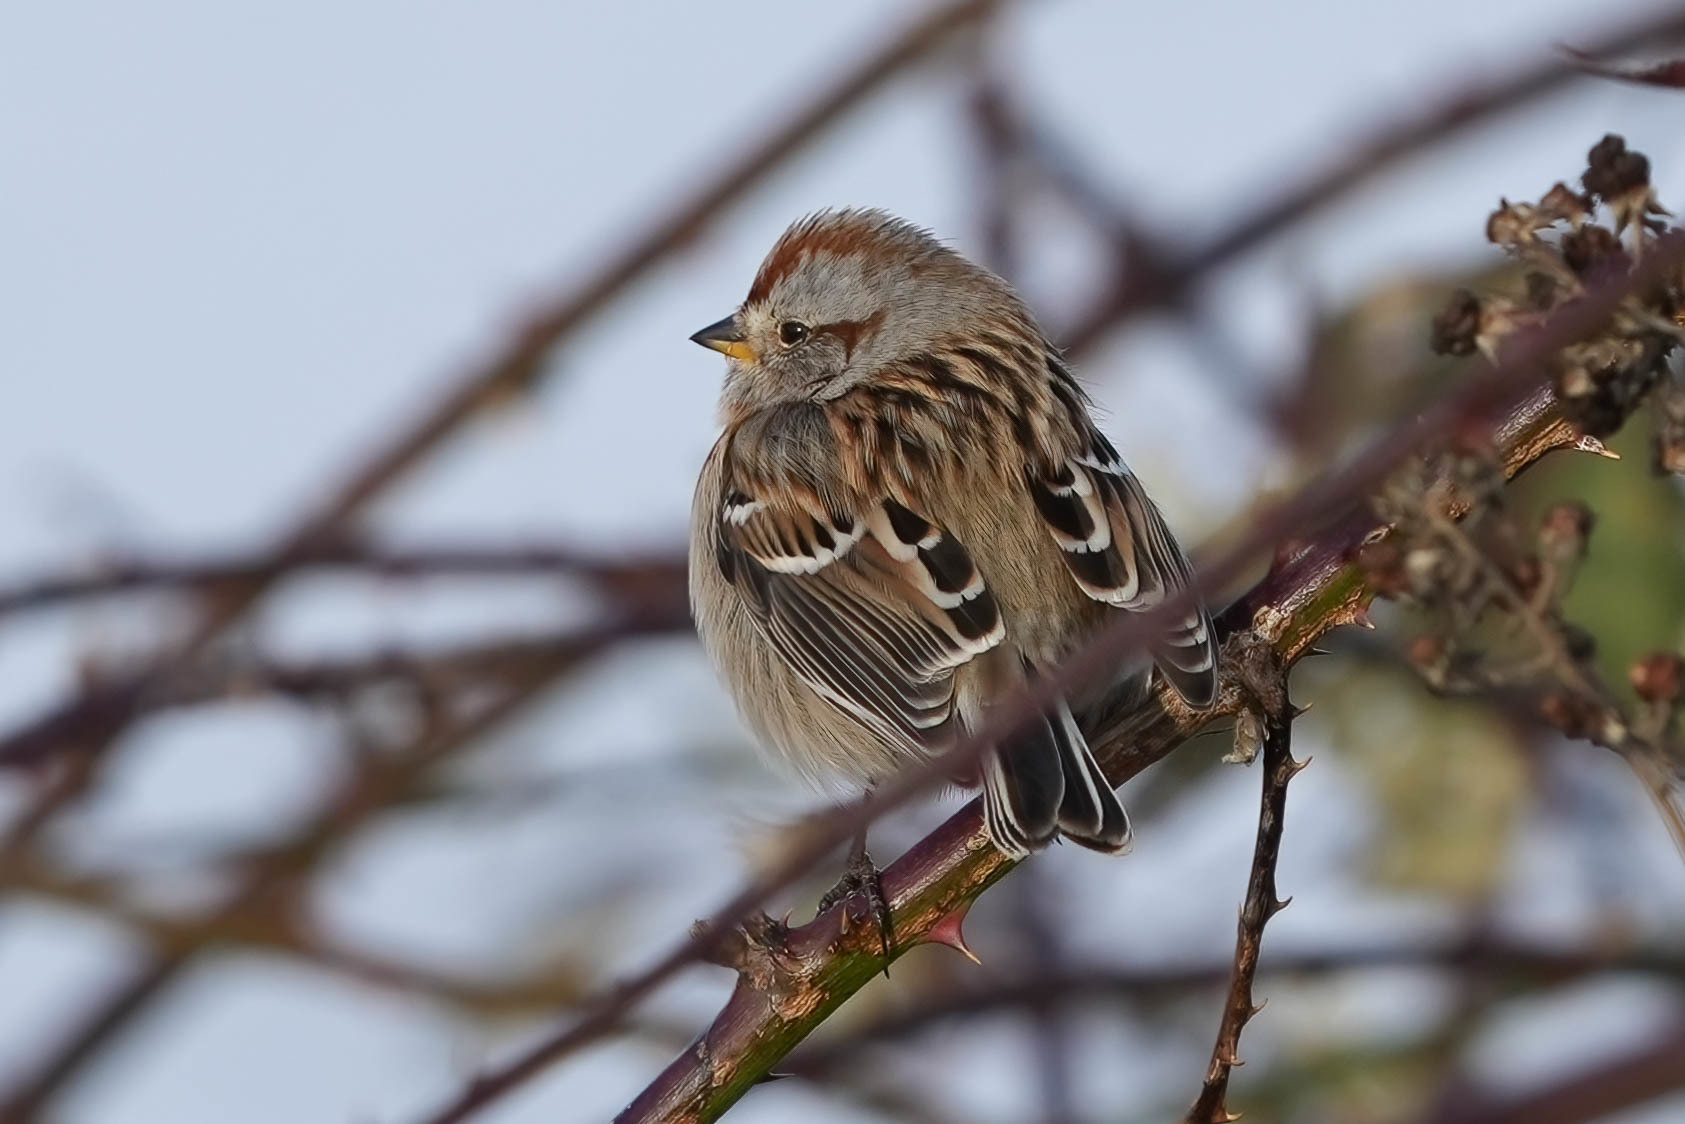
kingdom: Animalia
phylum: Chordata
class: Aves
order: Passeriformes
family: Passerellidae
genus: Spizelloides
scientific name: Spizelloides arborea
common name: American tree sparrow
